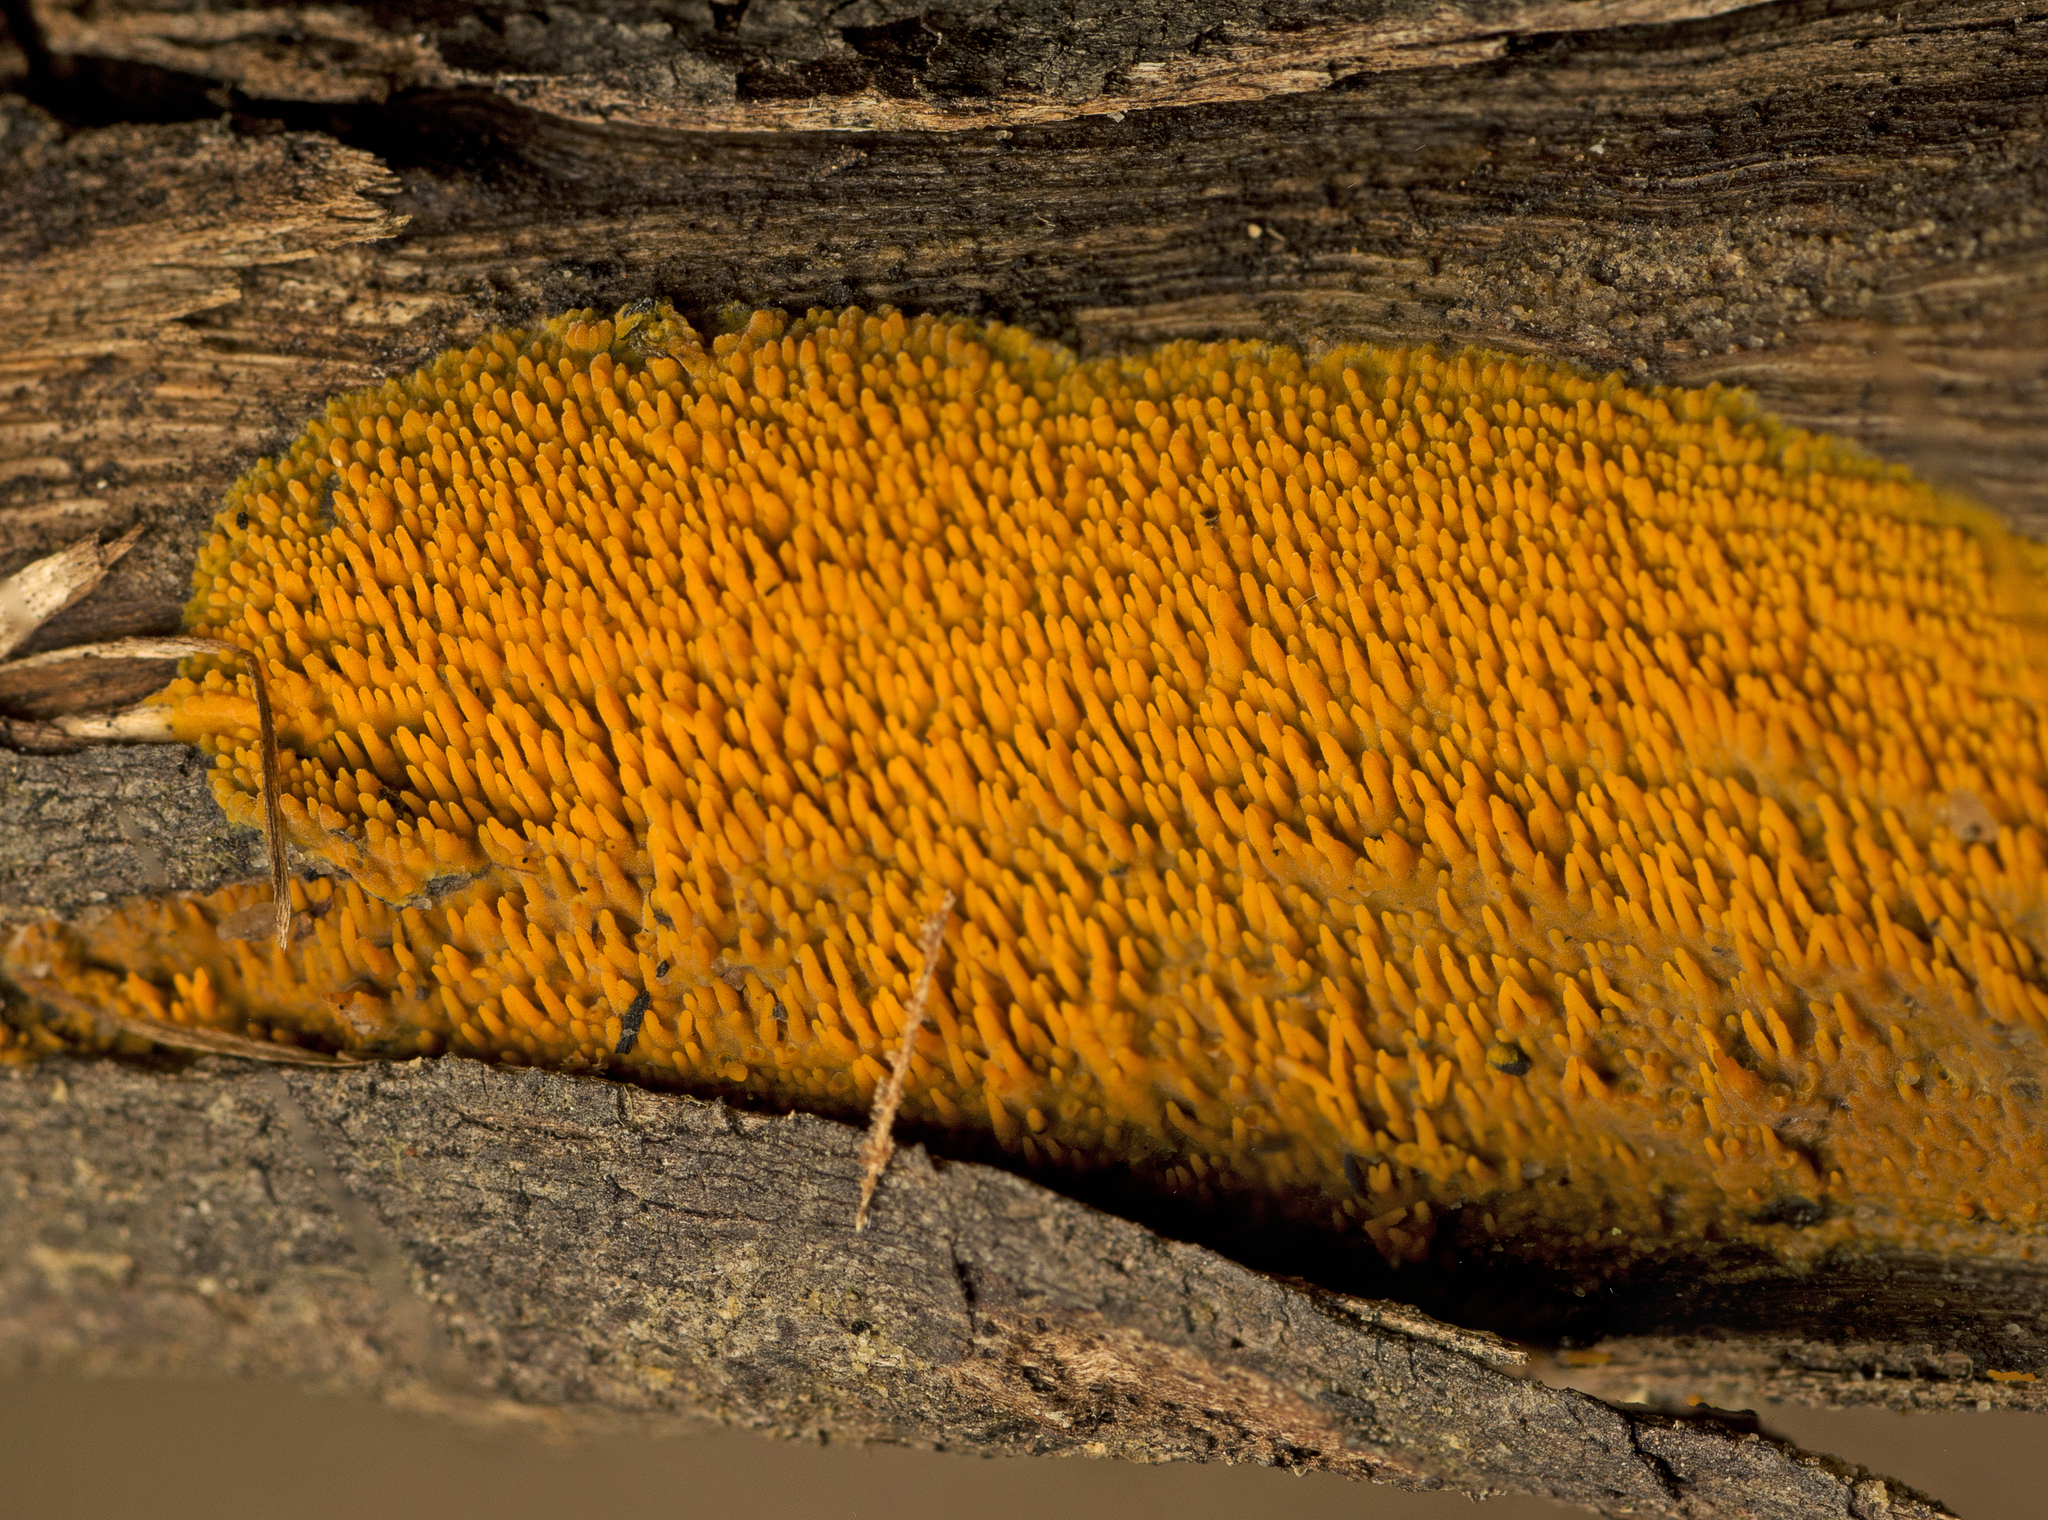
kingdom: Fungi
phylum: Basidiomycota
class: Agaricomycetes
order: Polyporales
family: Meruliaceae
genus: Phlebia
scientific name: Phlebia subceracea
